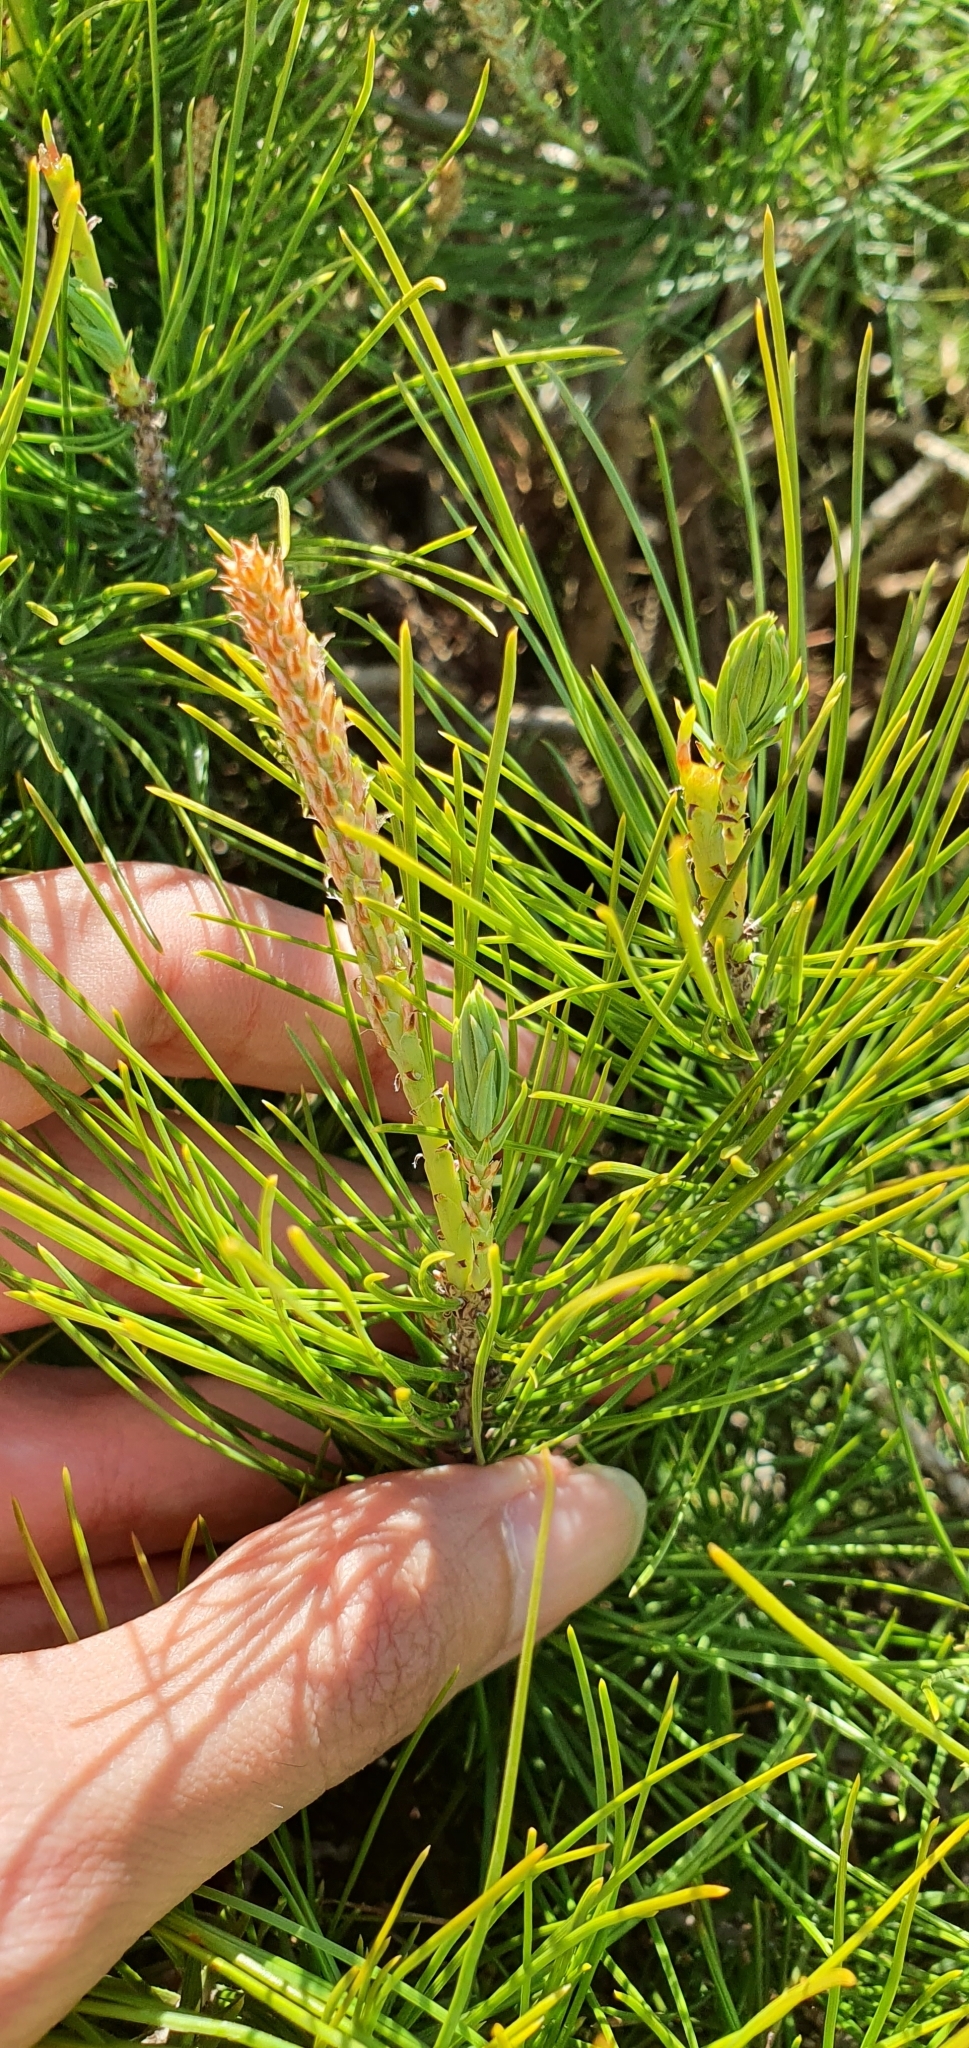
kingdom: Plantae
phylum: Tracheophyta
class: Pinopsida
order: Pinales
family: Pinaceae
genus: Pinus
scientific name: Pinus halepensis
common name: Aleppo pine
